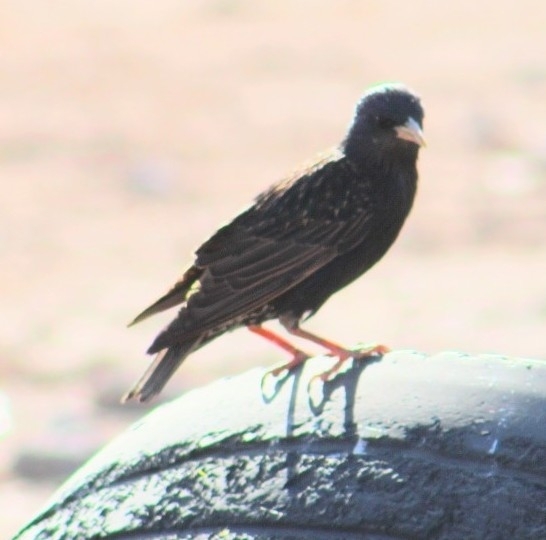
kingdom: Animalia
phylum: Chordata
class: Aves
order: Passeriformes
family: Sturnidae
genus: Sturnus
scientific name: Sturnus vulgaris
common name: Common starling
